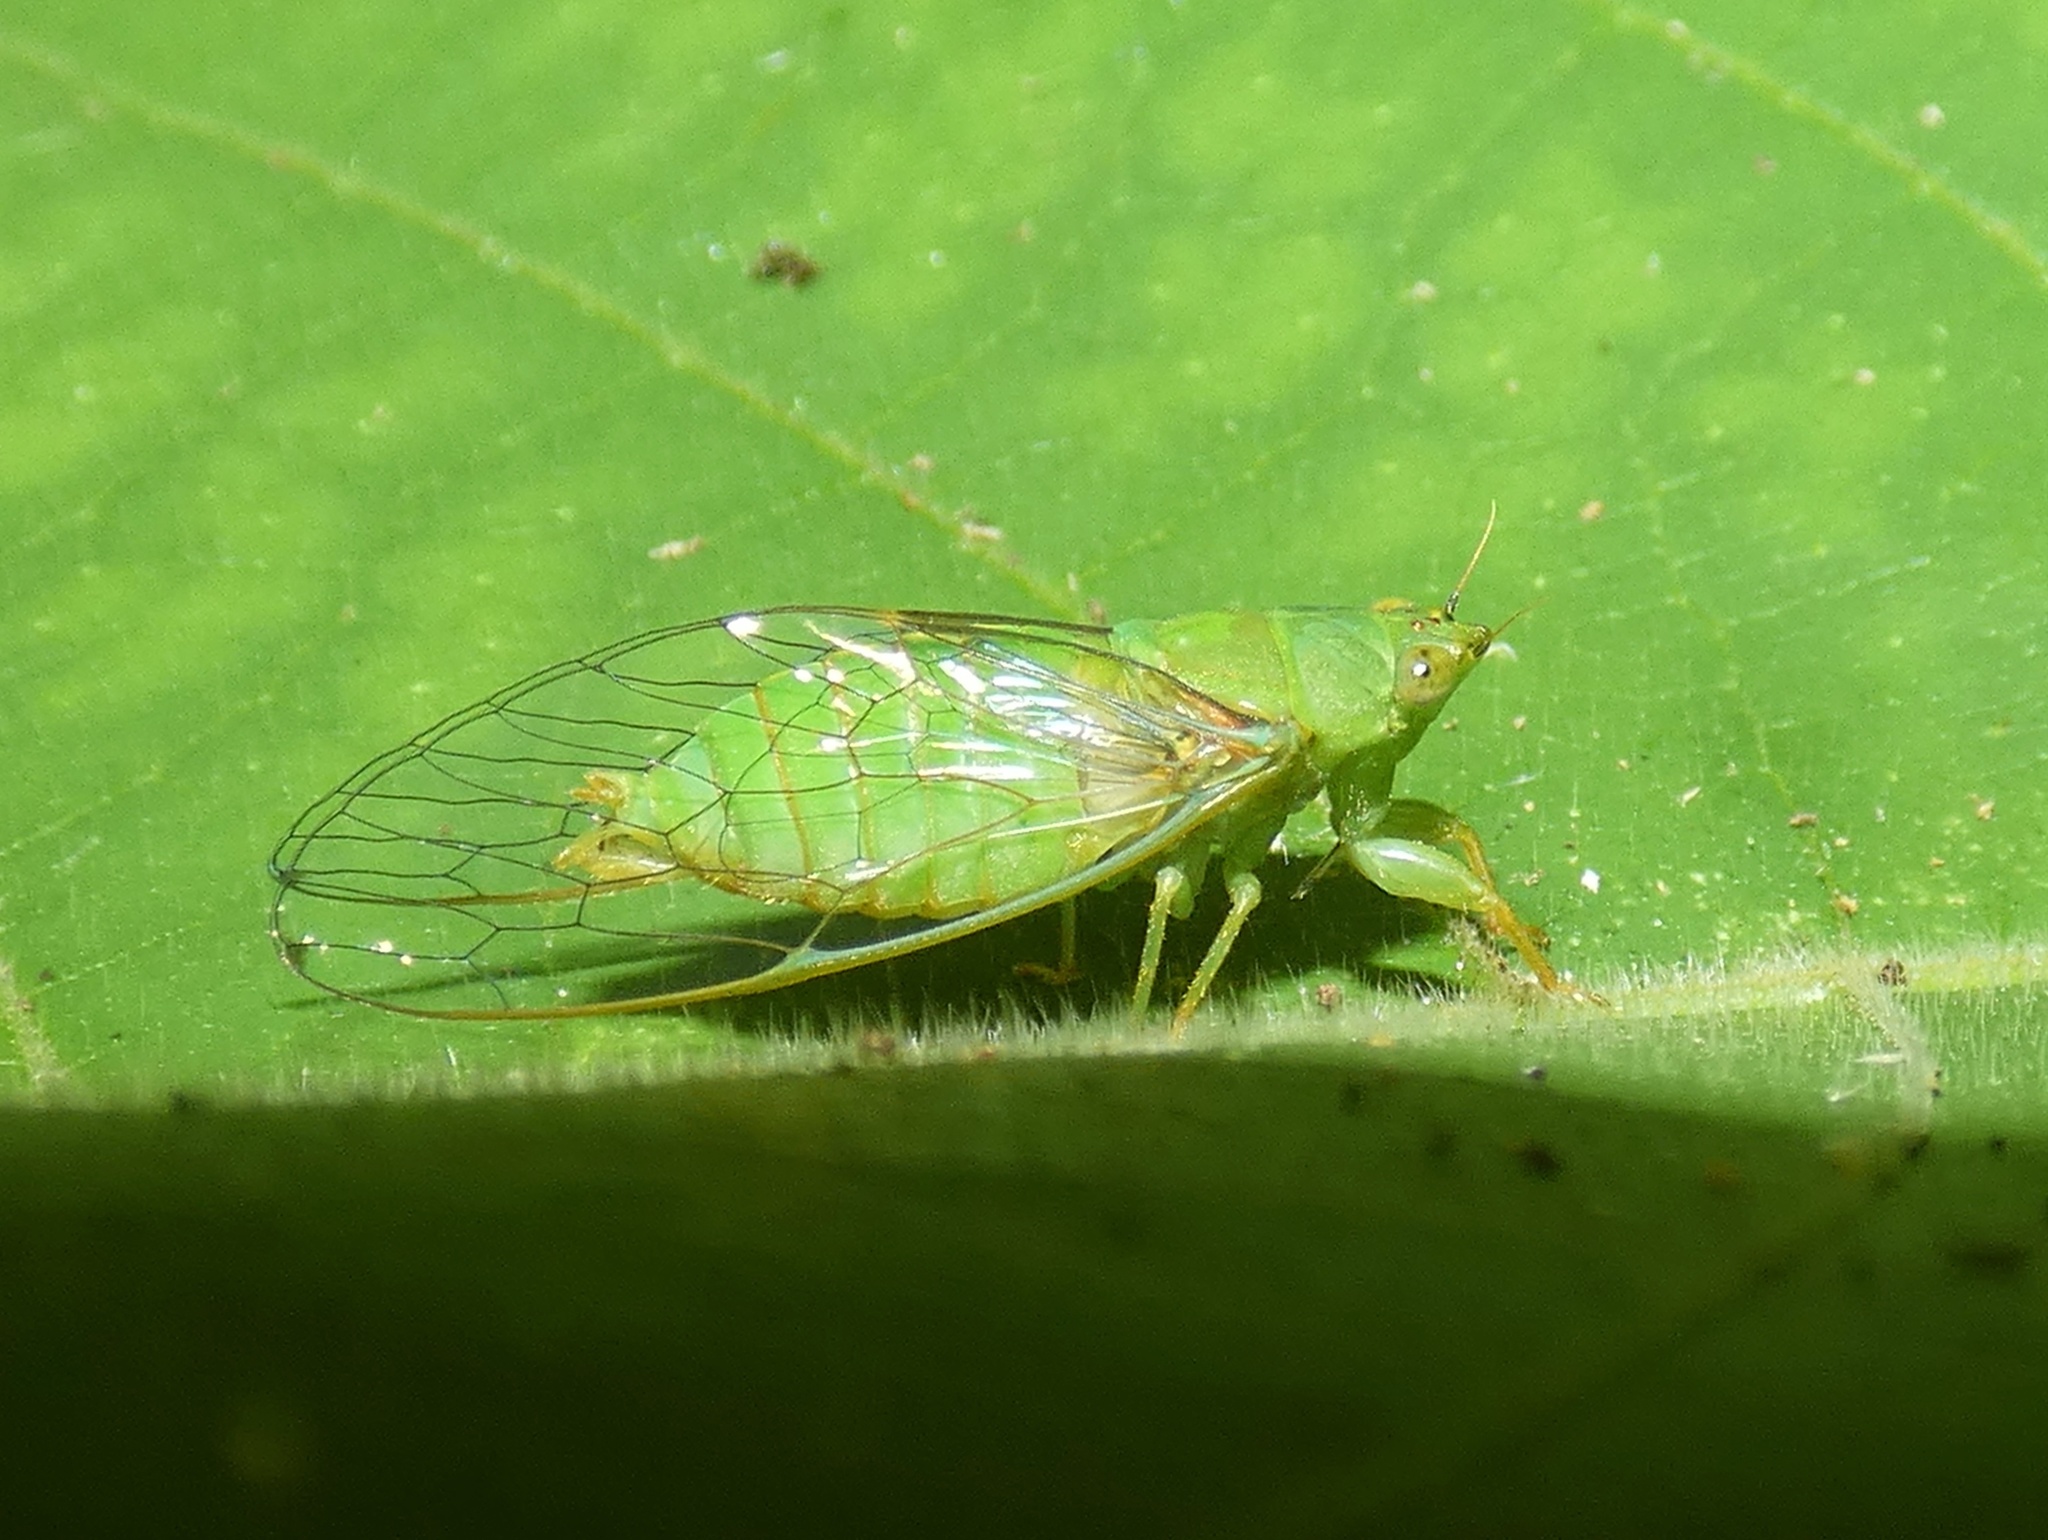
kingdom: Animalia
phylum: Arthropoda
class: Insecta
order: Hemiptera
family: Cicadidae
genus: Conibosa
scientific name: Conibosa occidentis
